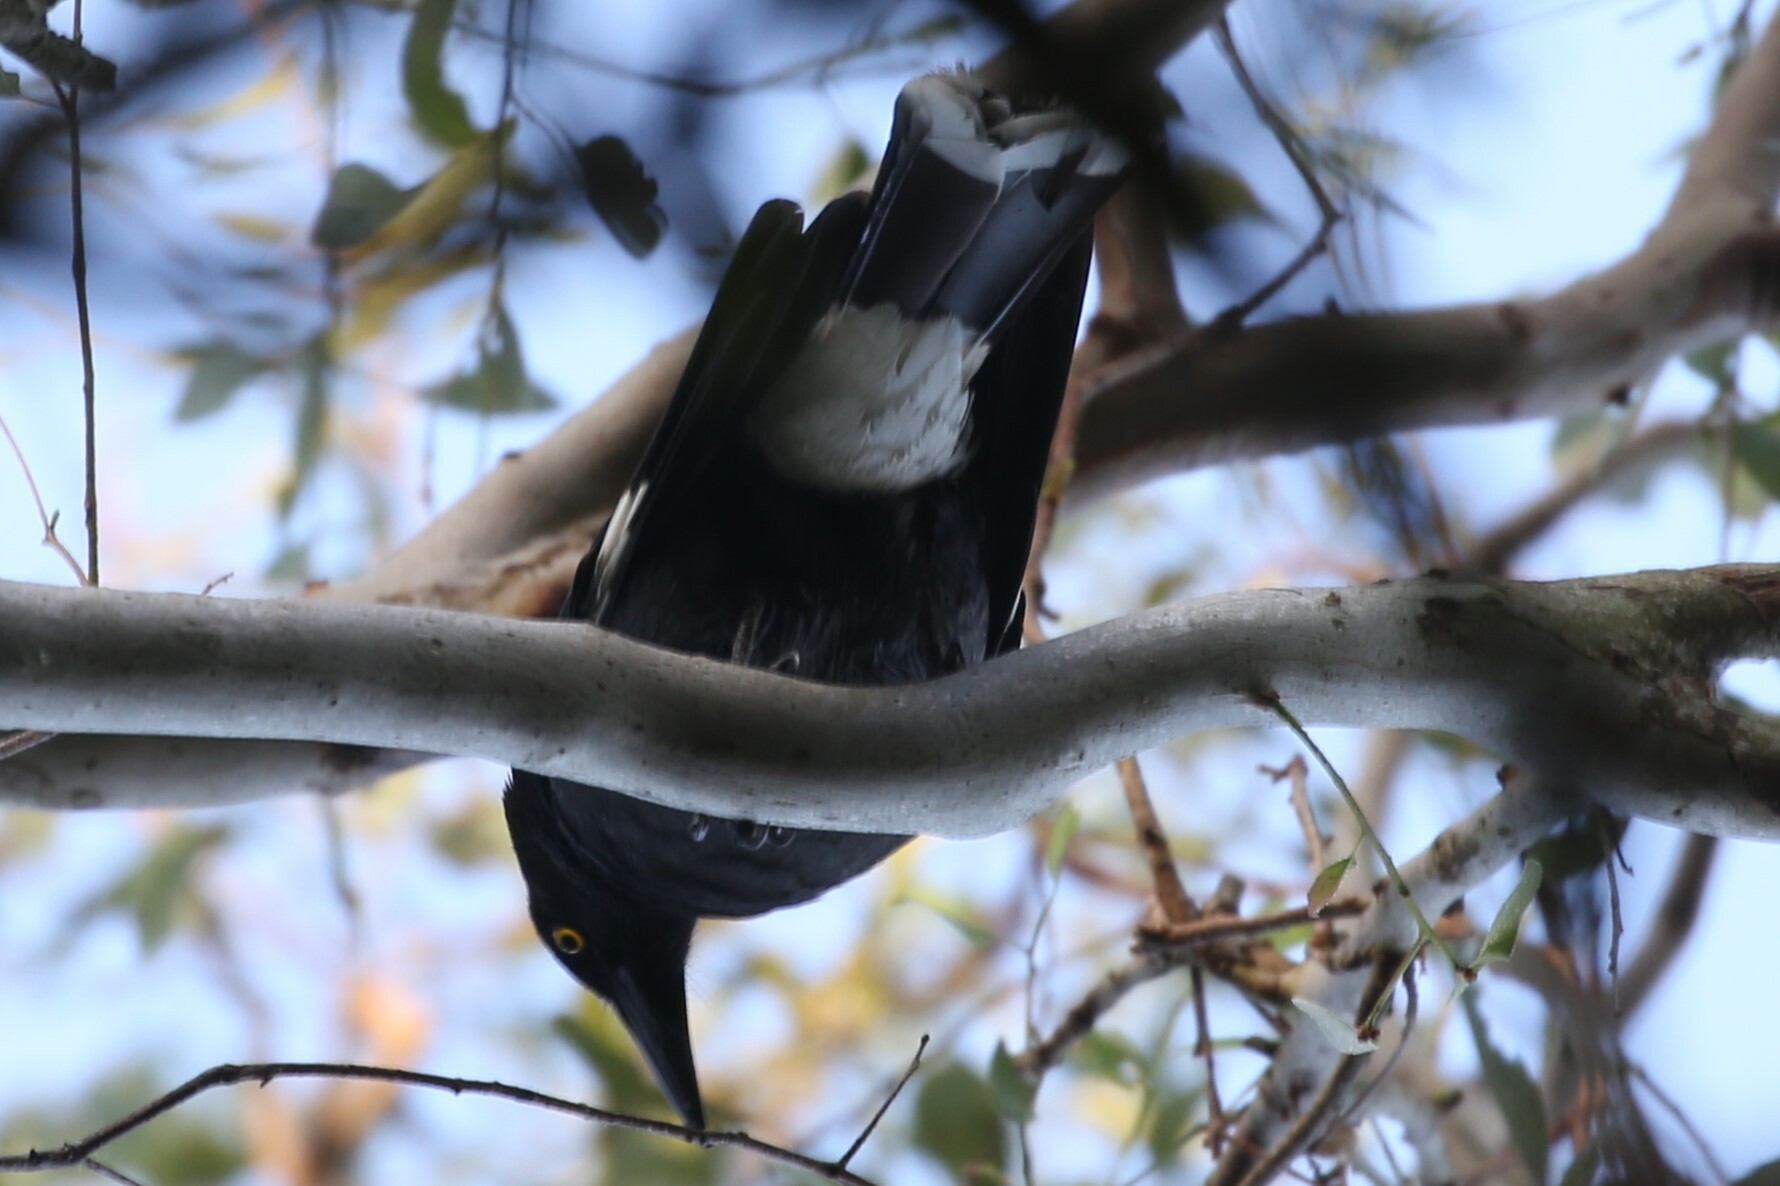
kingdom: Animalia
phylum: Chordata
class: Aves
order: Passeriformes
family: Cracticidae
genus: Strepera
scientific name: Strepera graculina
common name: Pied currawong
